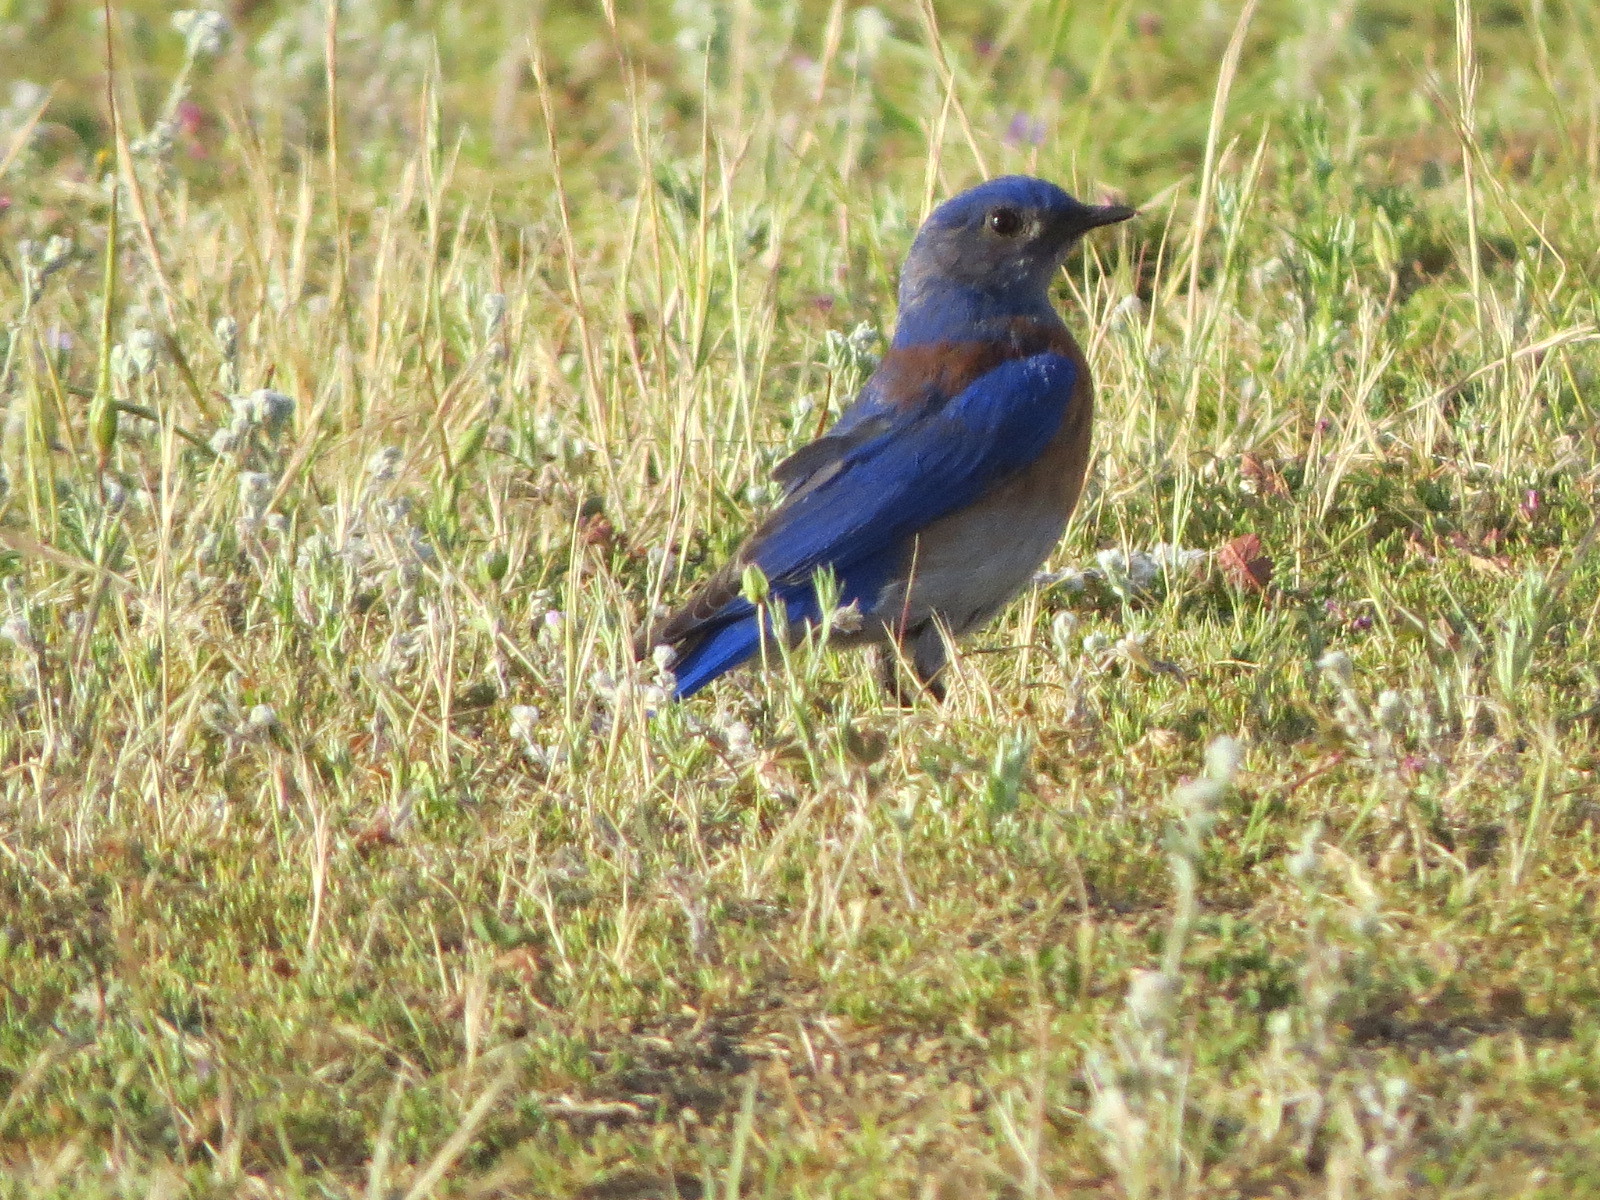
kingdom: Animalia
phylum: Chordata
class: Aves
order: Passeriformes
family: Turdidae
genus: Sialia
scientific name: Sialia mexicana
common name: Western bluebird
